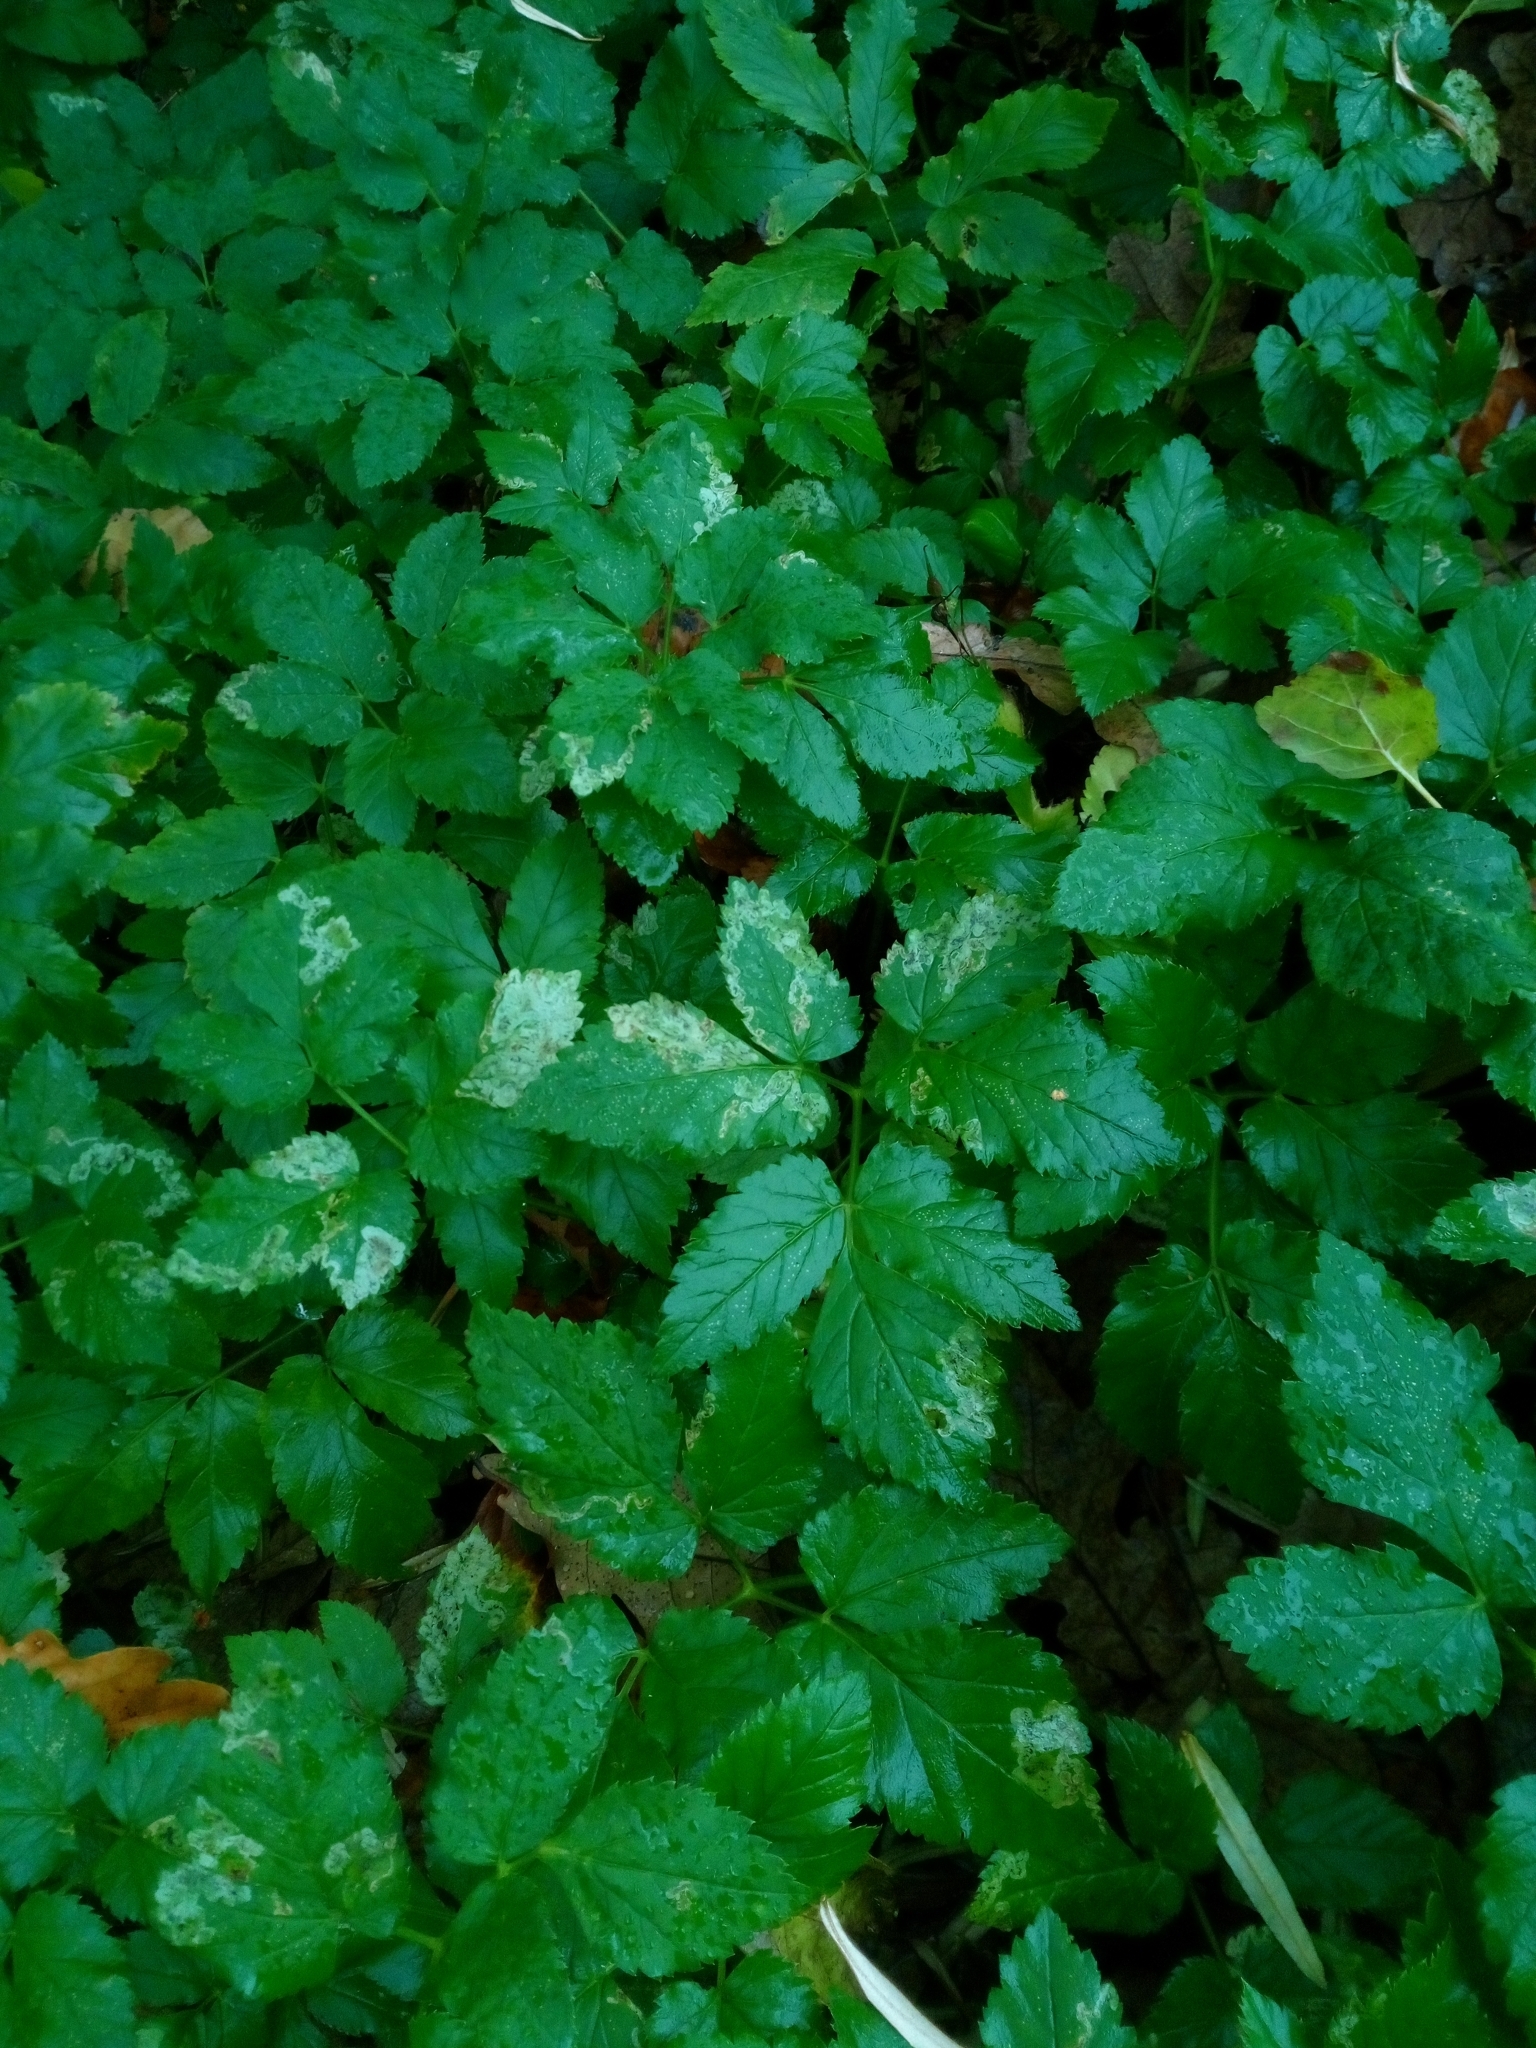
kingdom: Plantae
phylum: Tracheophyta
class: Magnoliopsida
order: Apiales
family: Apiaceae
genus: Aegopodium
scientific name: Aegopodium podagraria
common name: Ground-elder
